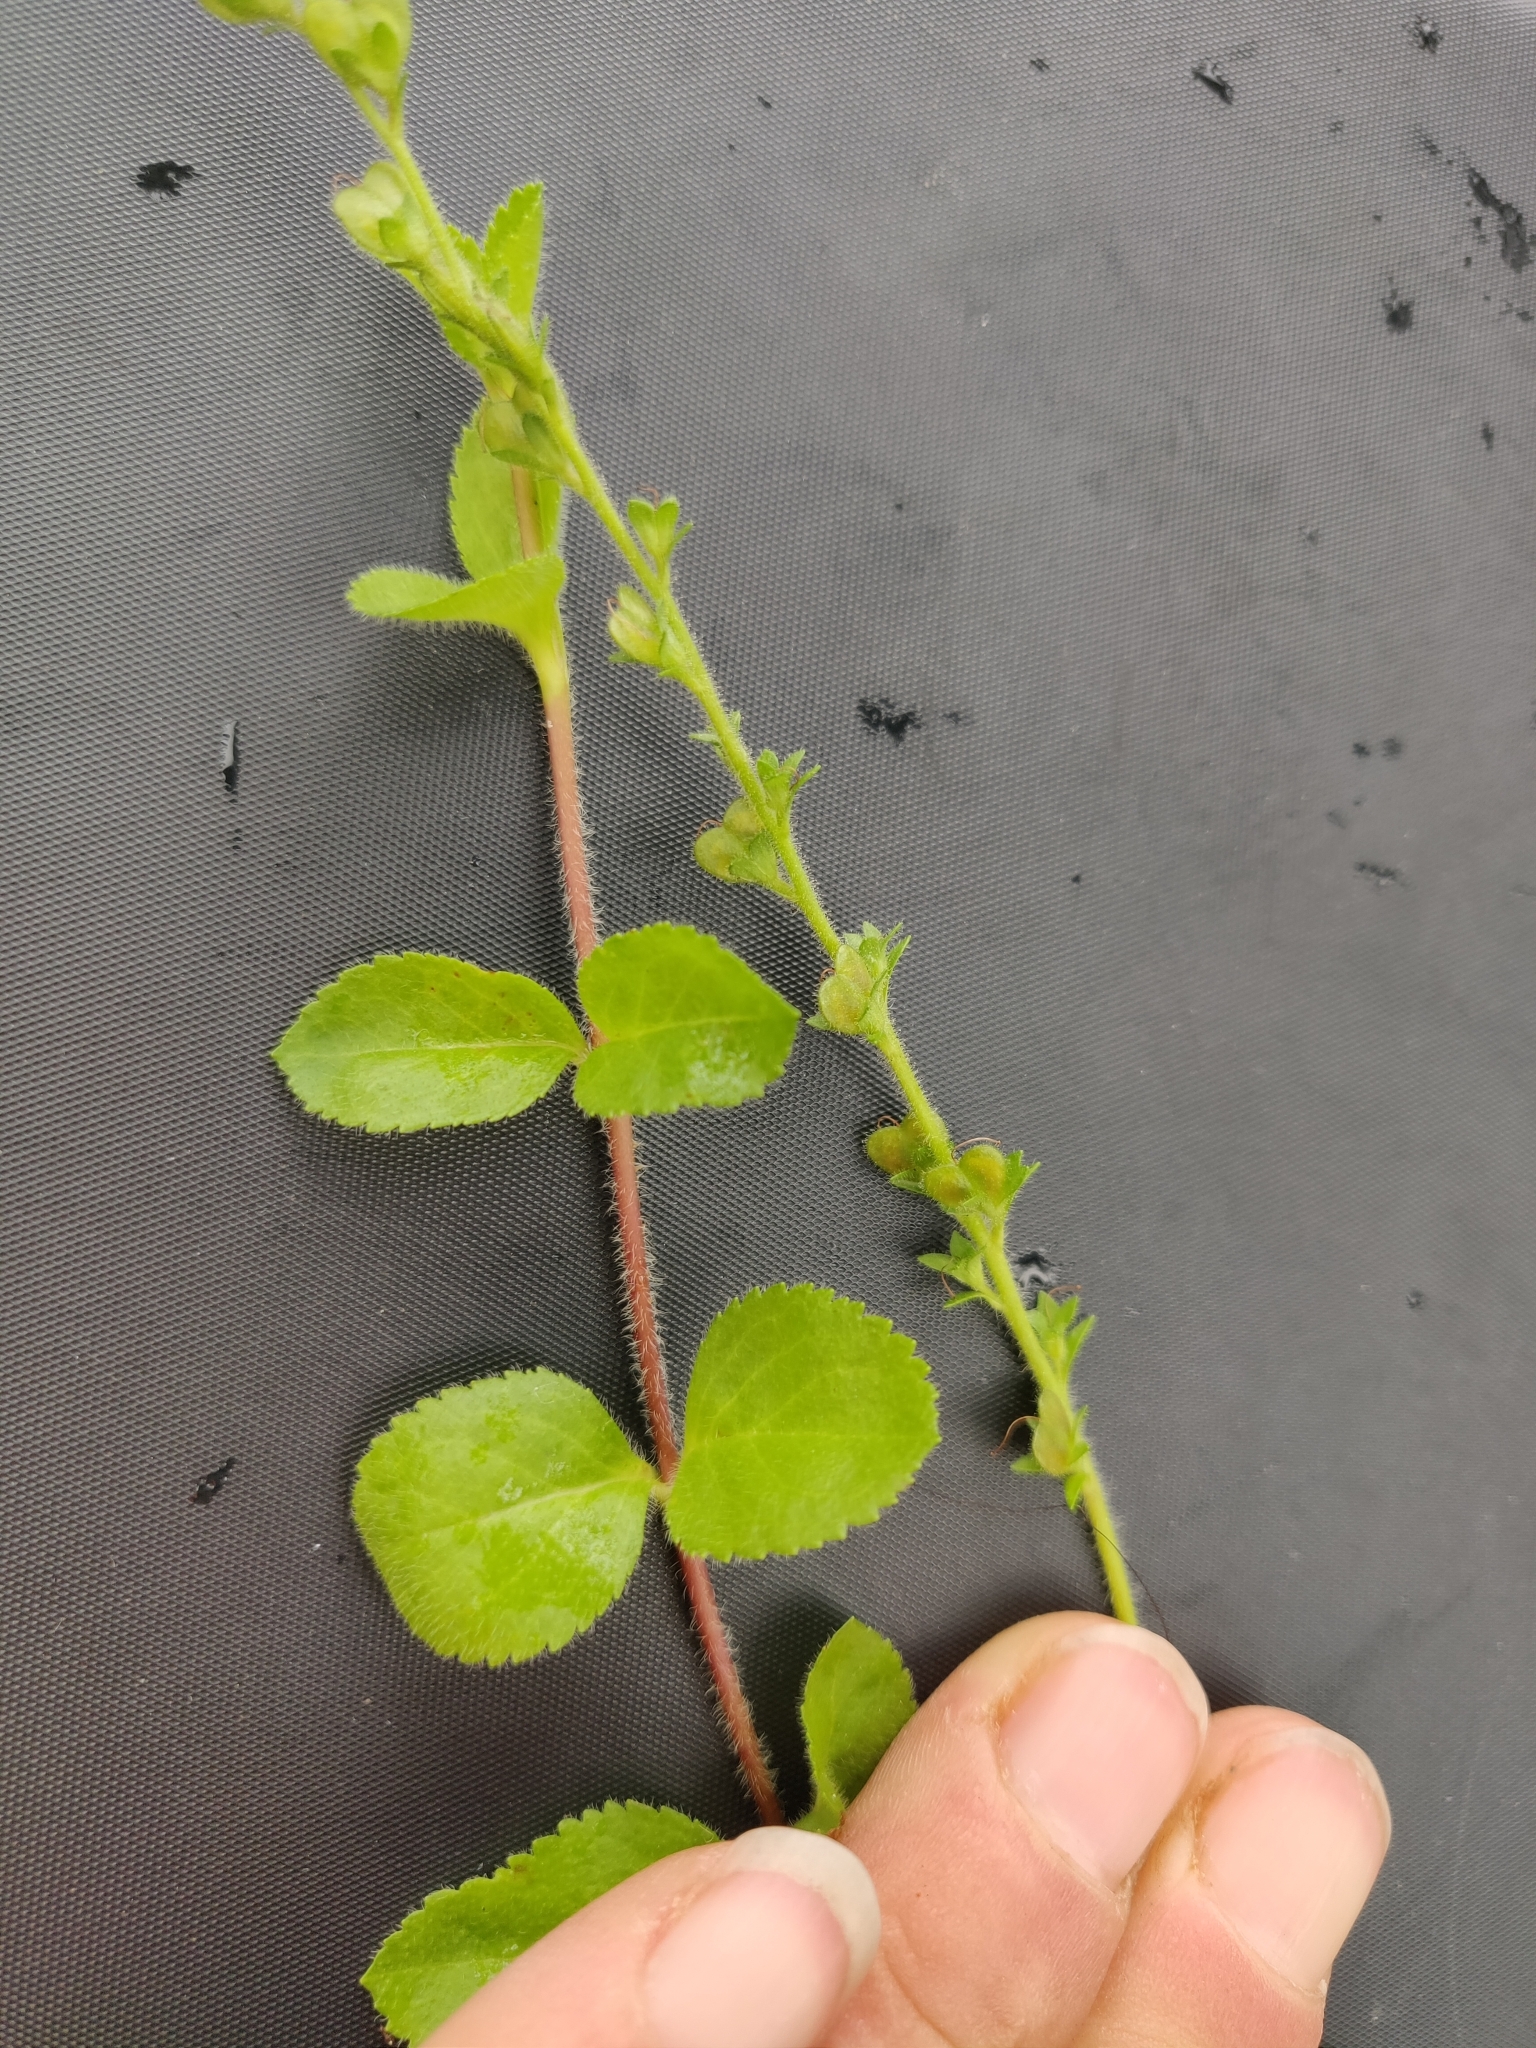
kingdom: Plantae
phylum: Tracheophyta
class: Magnoliopsida
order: Lamiales
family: Plantaginaceae
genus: Veronica
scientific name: Veronica officinalis
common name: Common speedwell
